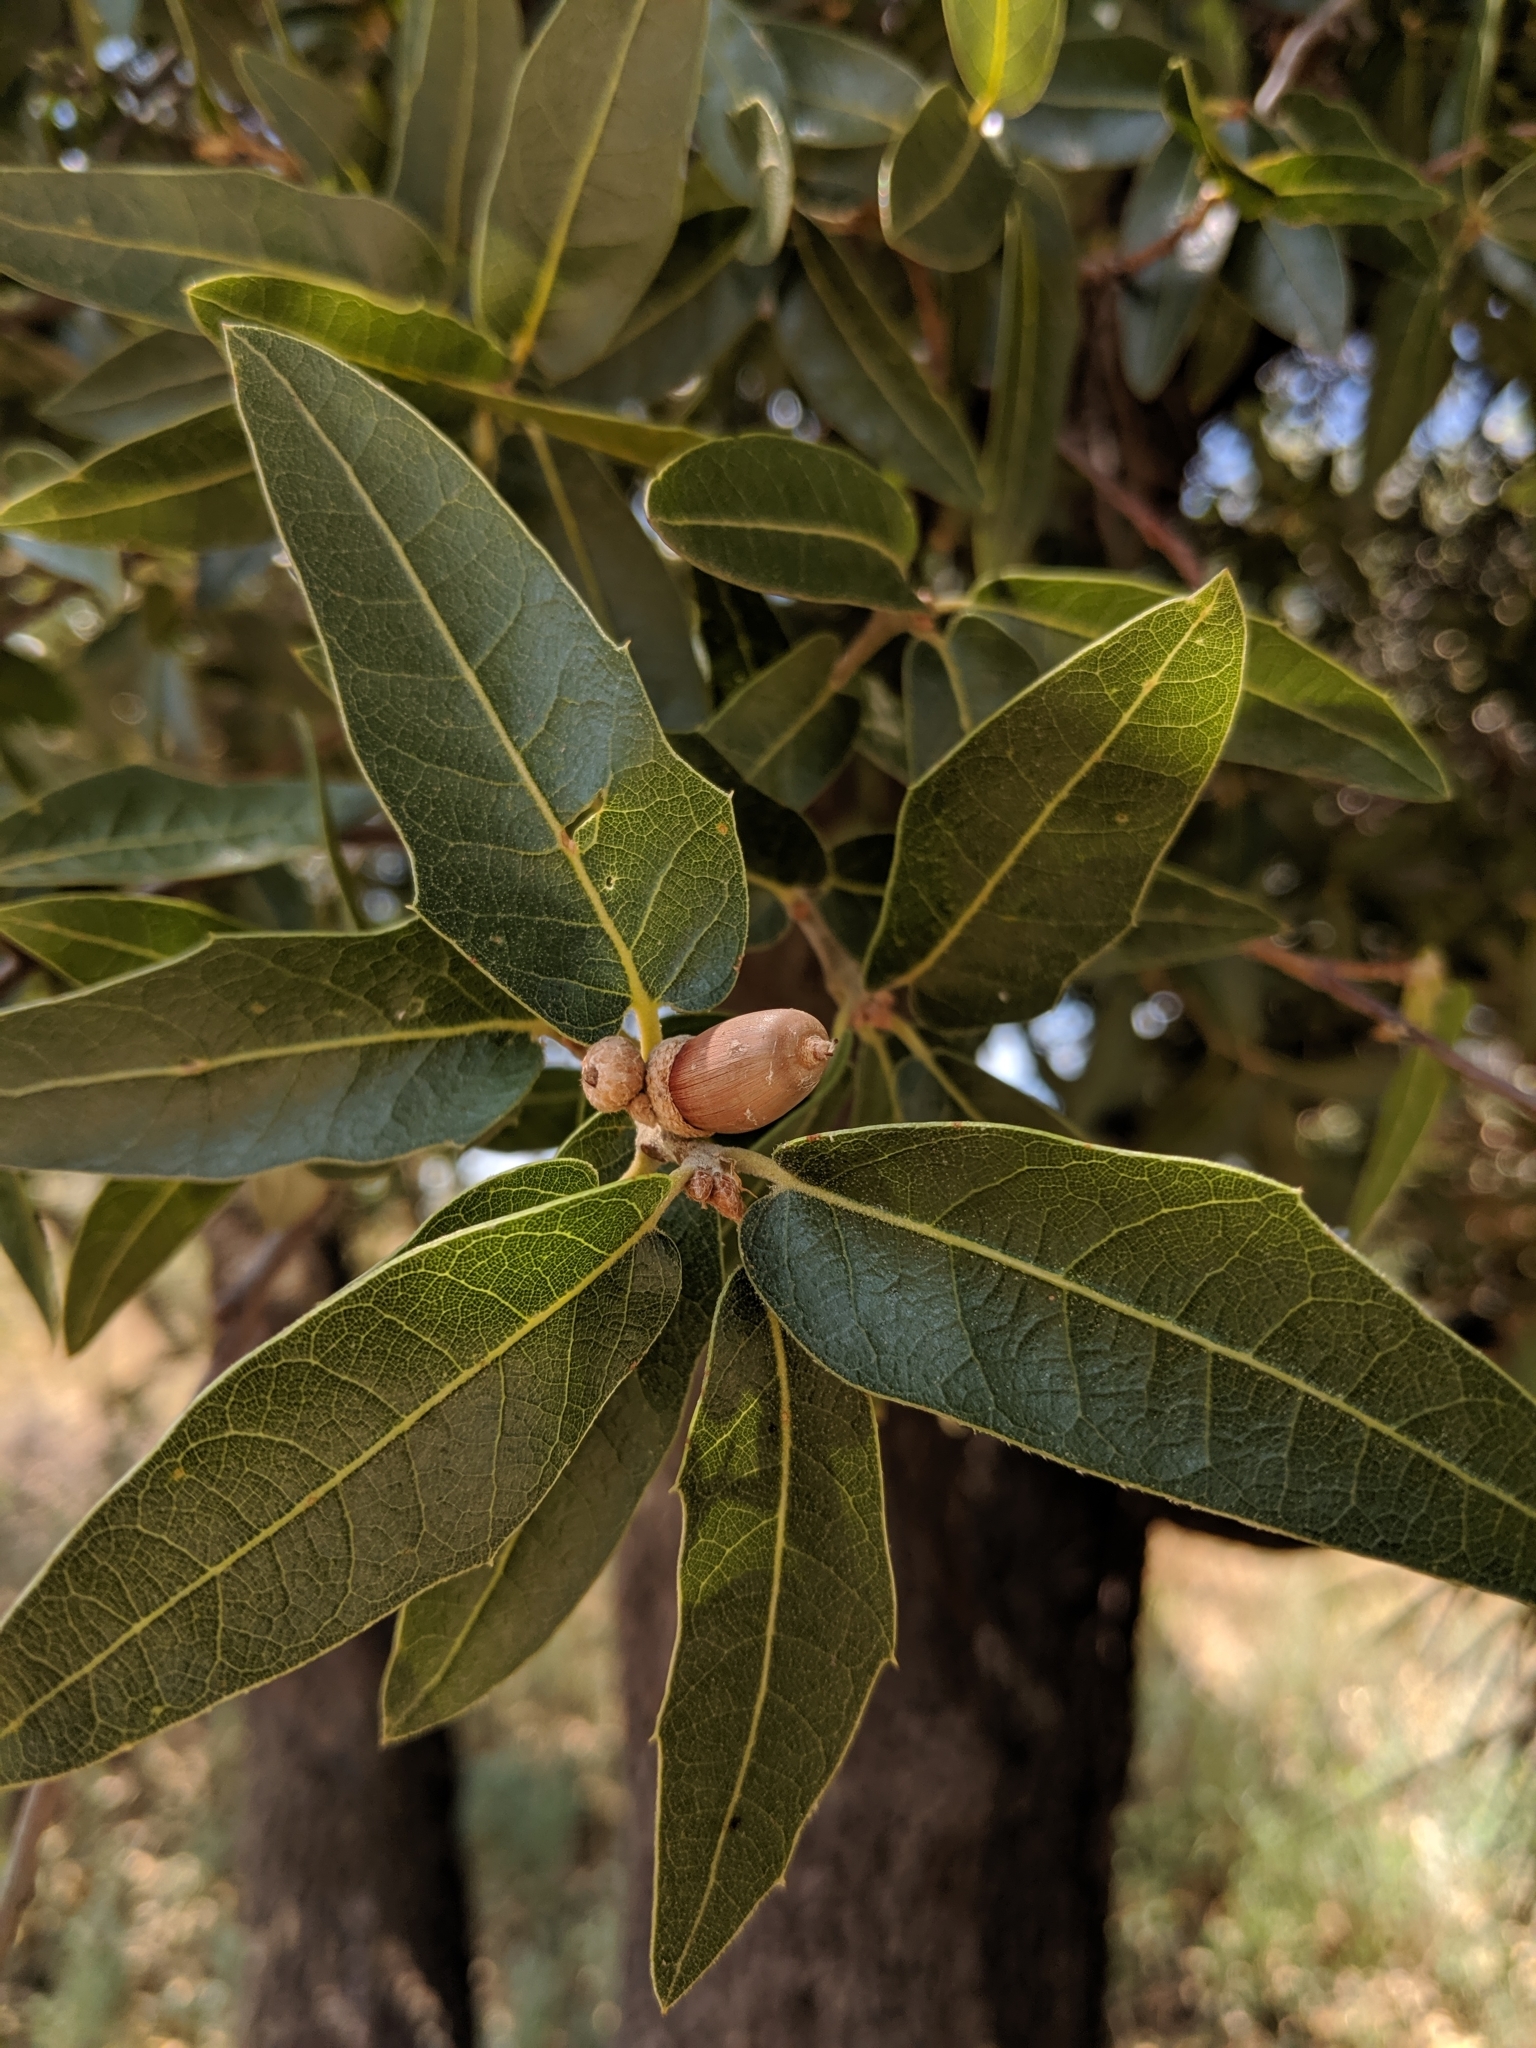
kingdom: Plantae
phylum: Tracheophyta
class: Magnoliopsida
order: Fagales
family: Fagaceae
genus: Quercus
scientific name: Quercus emoryi
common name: Emory oak
